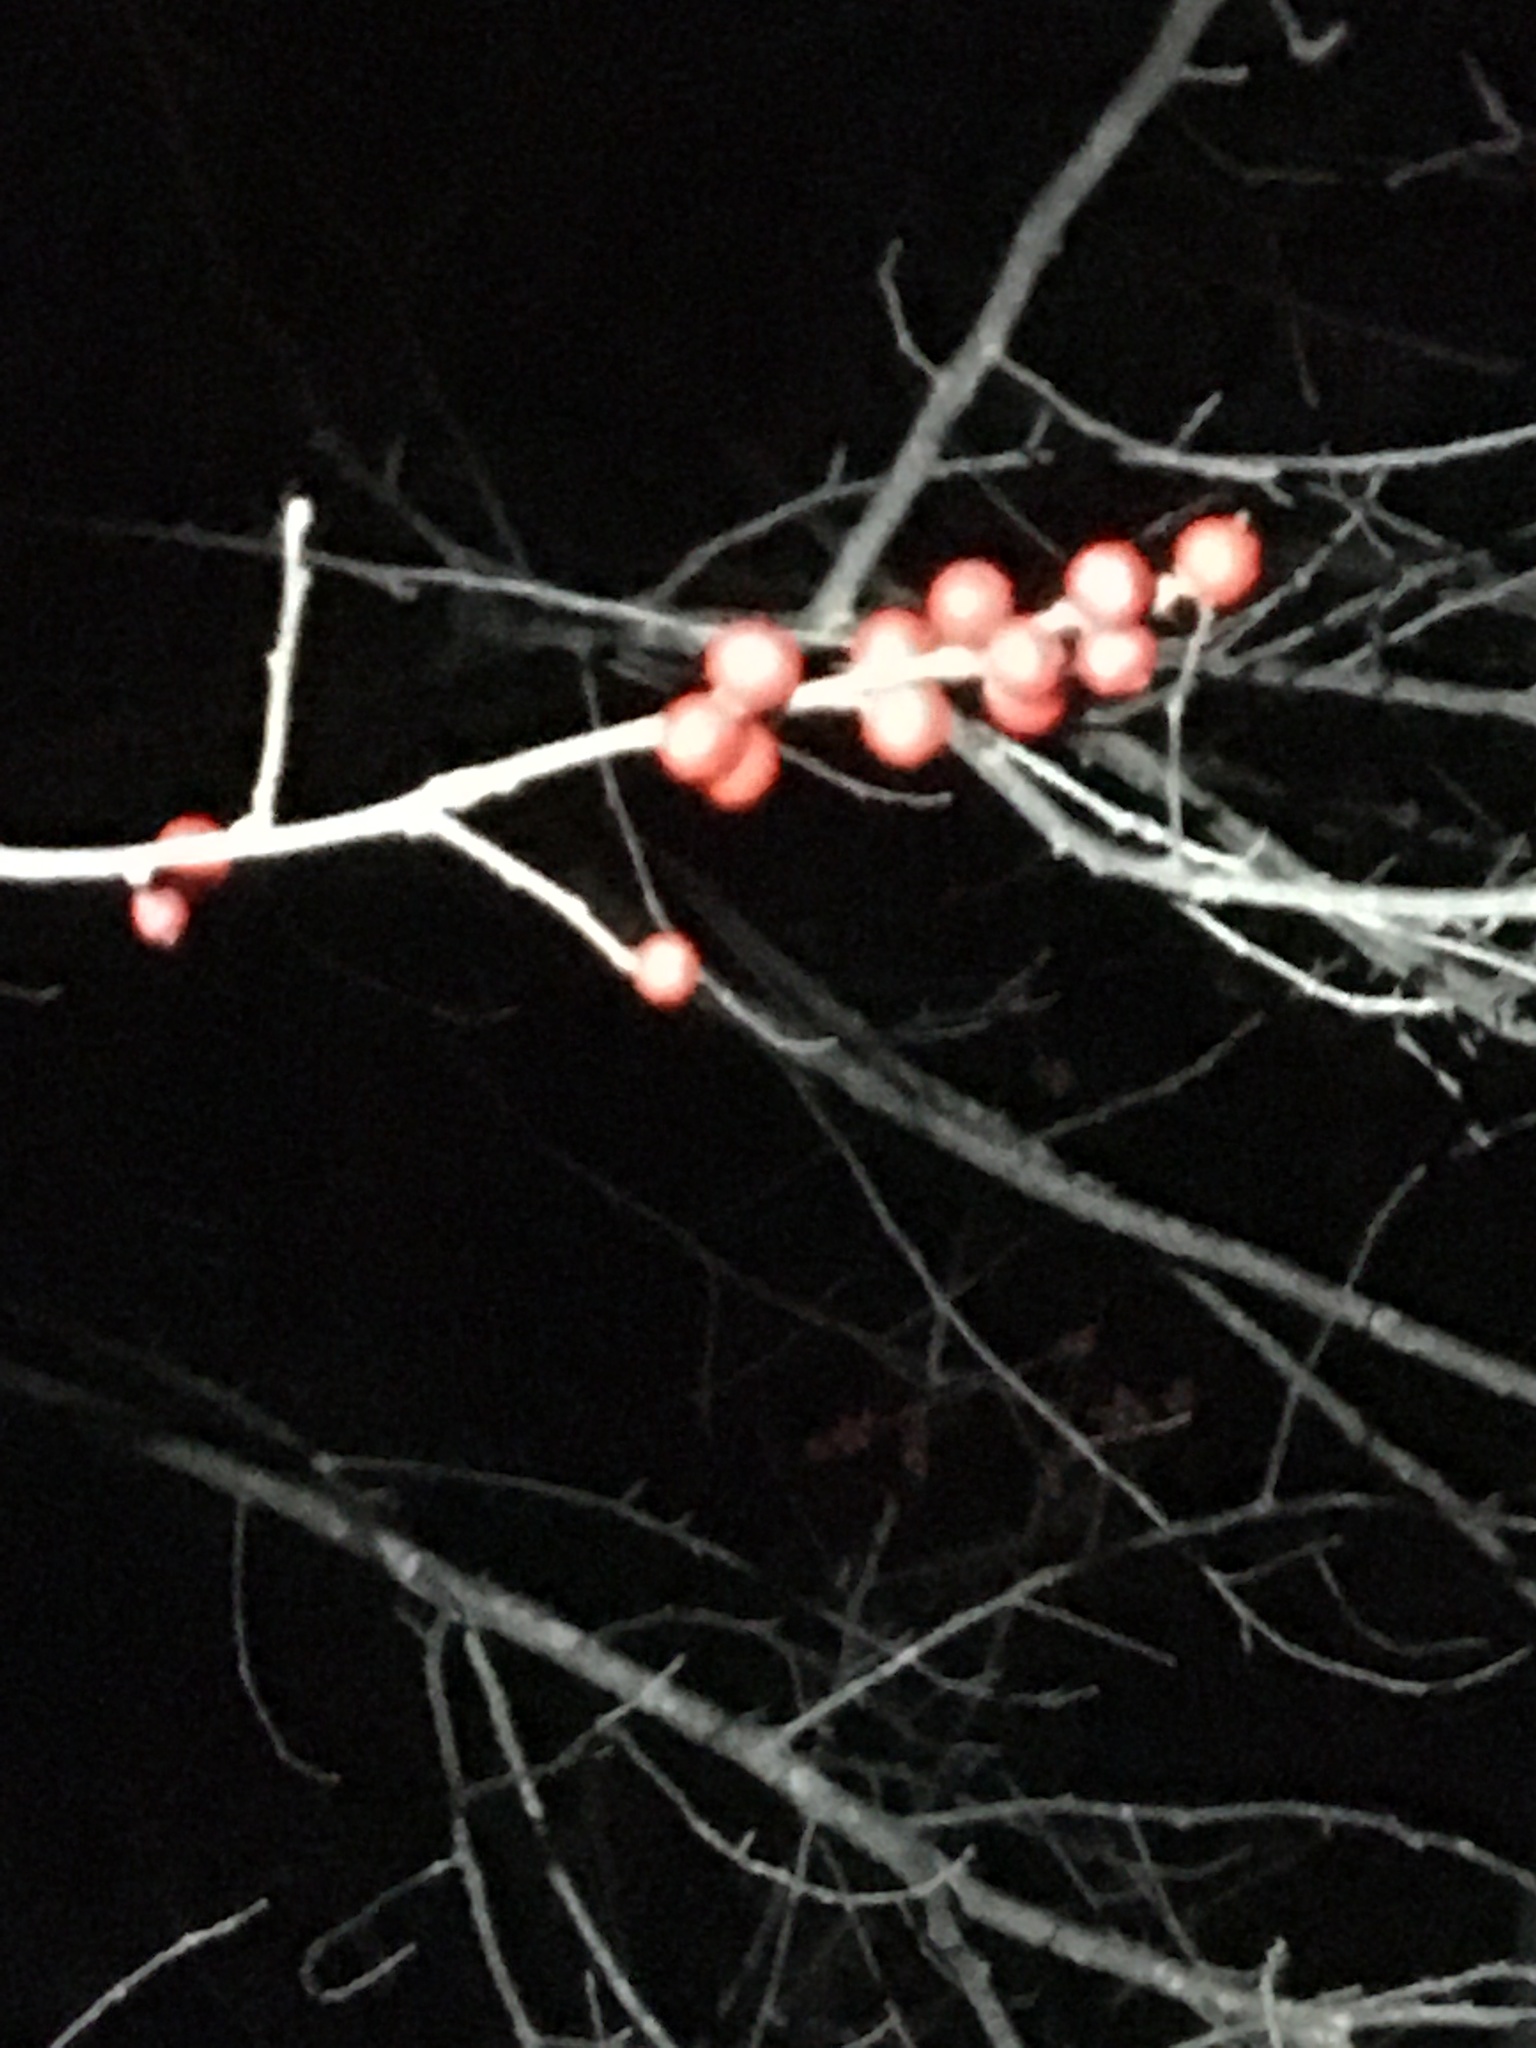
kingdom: Plantae
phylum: Tracheophyta
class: Magnoliopsida
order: Aquifoliales
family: Aquifoliaceae
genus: Ilex
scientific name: Ilex verticillata
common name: Virginia winterberry
